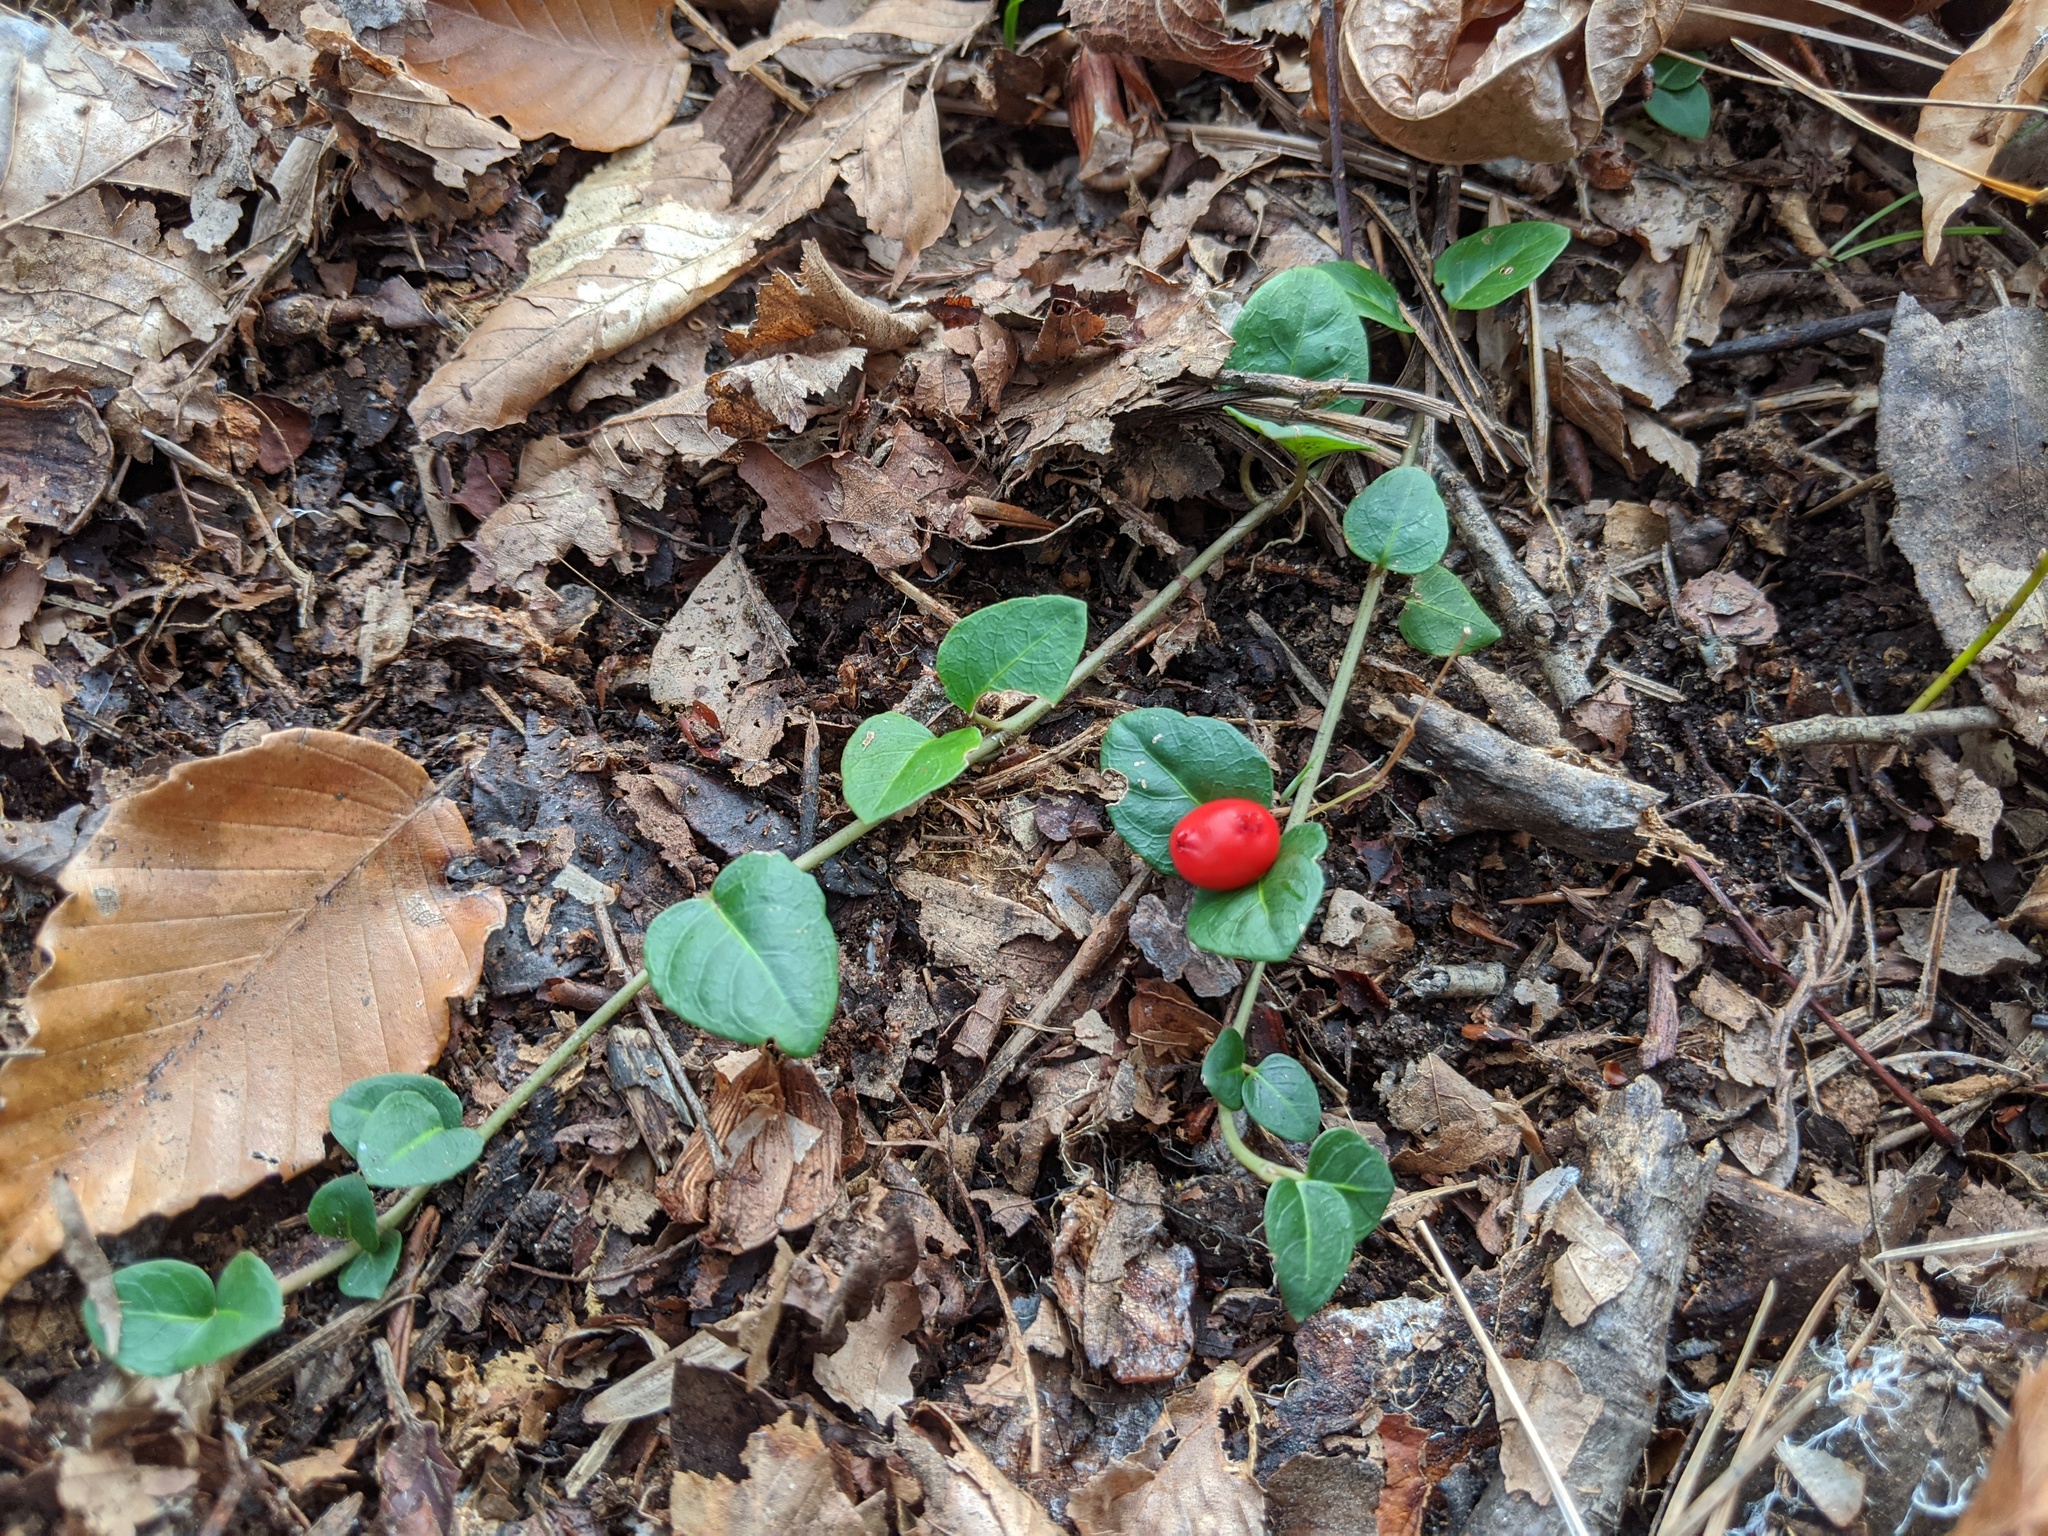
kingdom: Plantae
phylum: Tracheophyta
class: Magnoliopsida
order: Gentianales
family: Rubiaceae
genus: Mitchella
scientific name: Mitchella repens
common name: Partridge-berry
